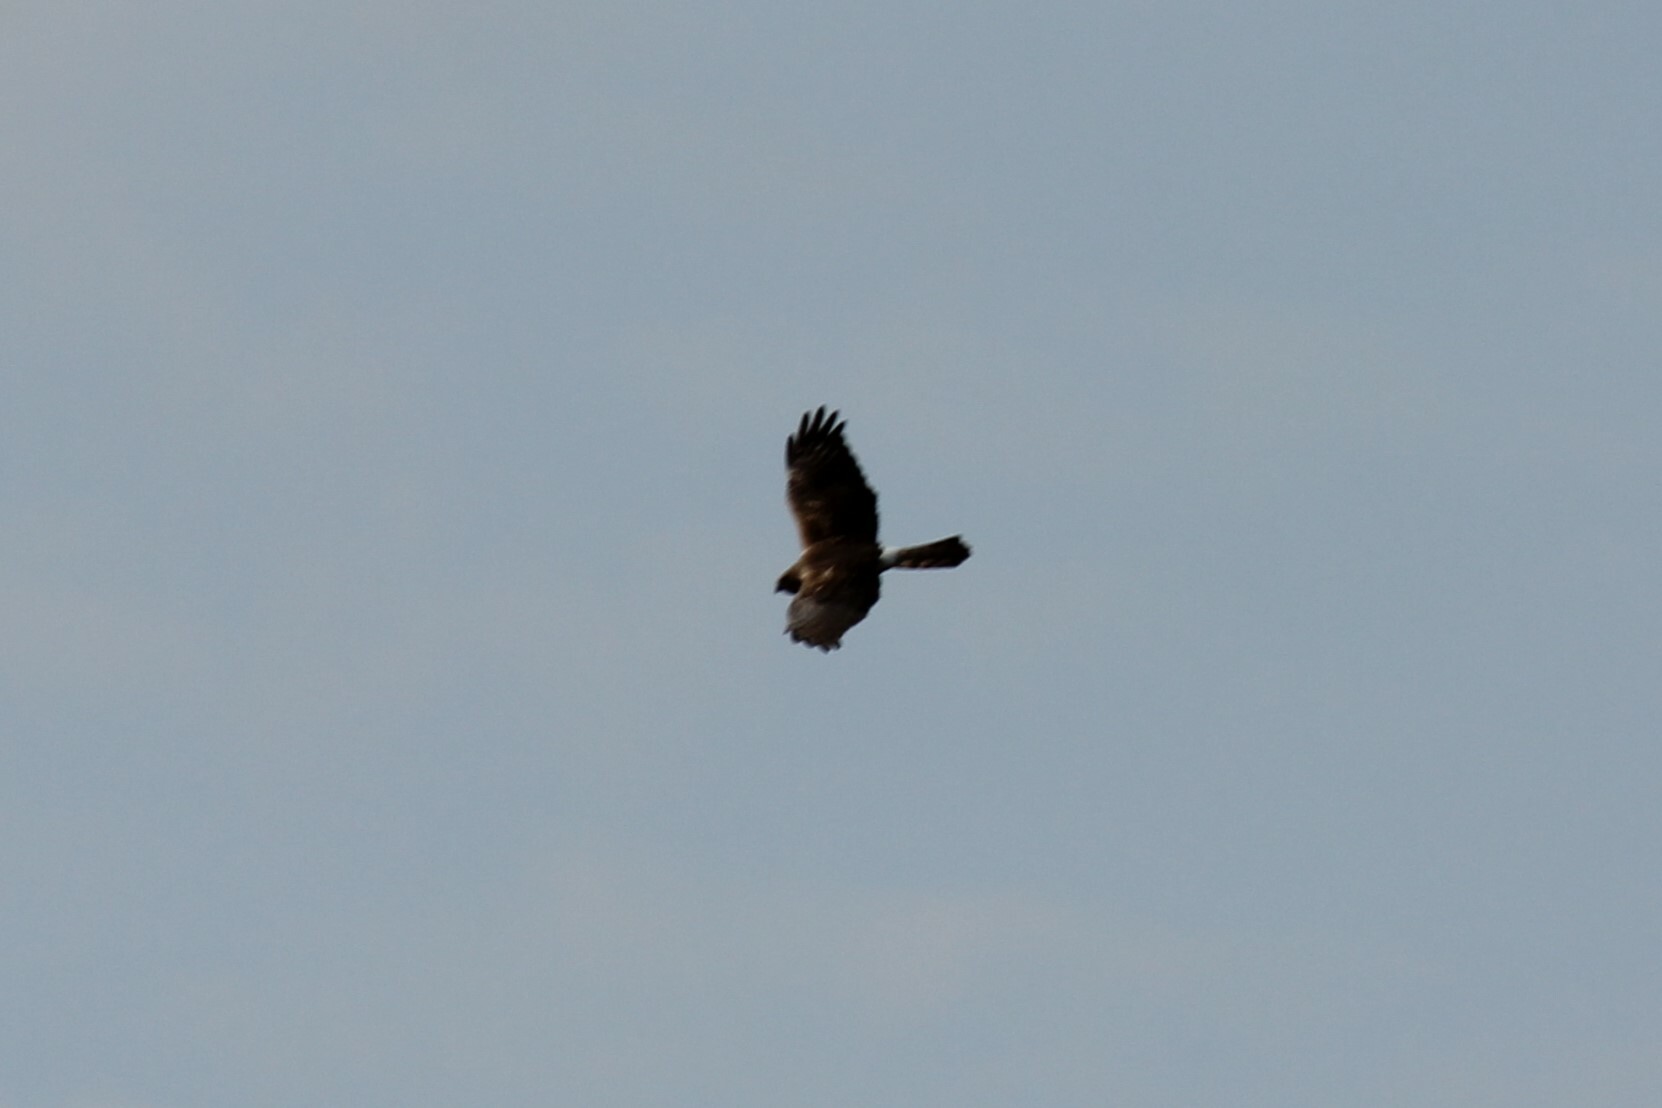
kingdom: Animalia
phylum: Chordata
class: Aves
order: Accipitriformes
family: Accipitridae
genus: Circus
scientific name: Circus cyaneus
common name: Hen harrier
